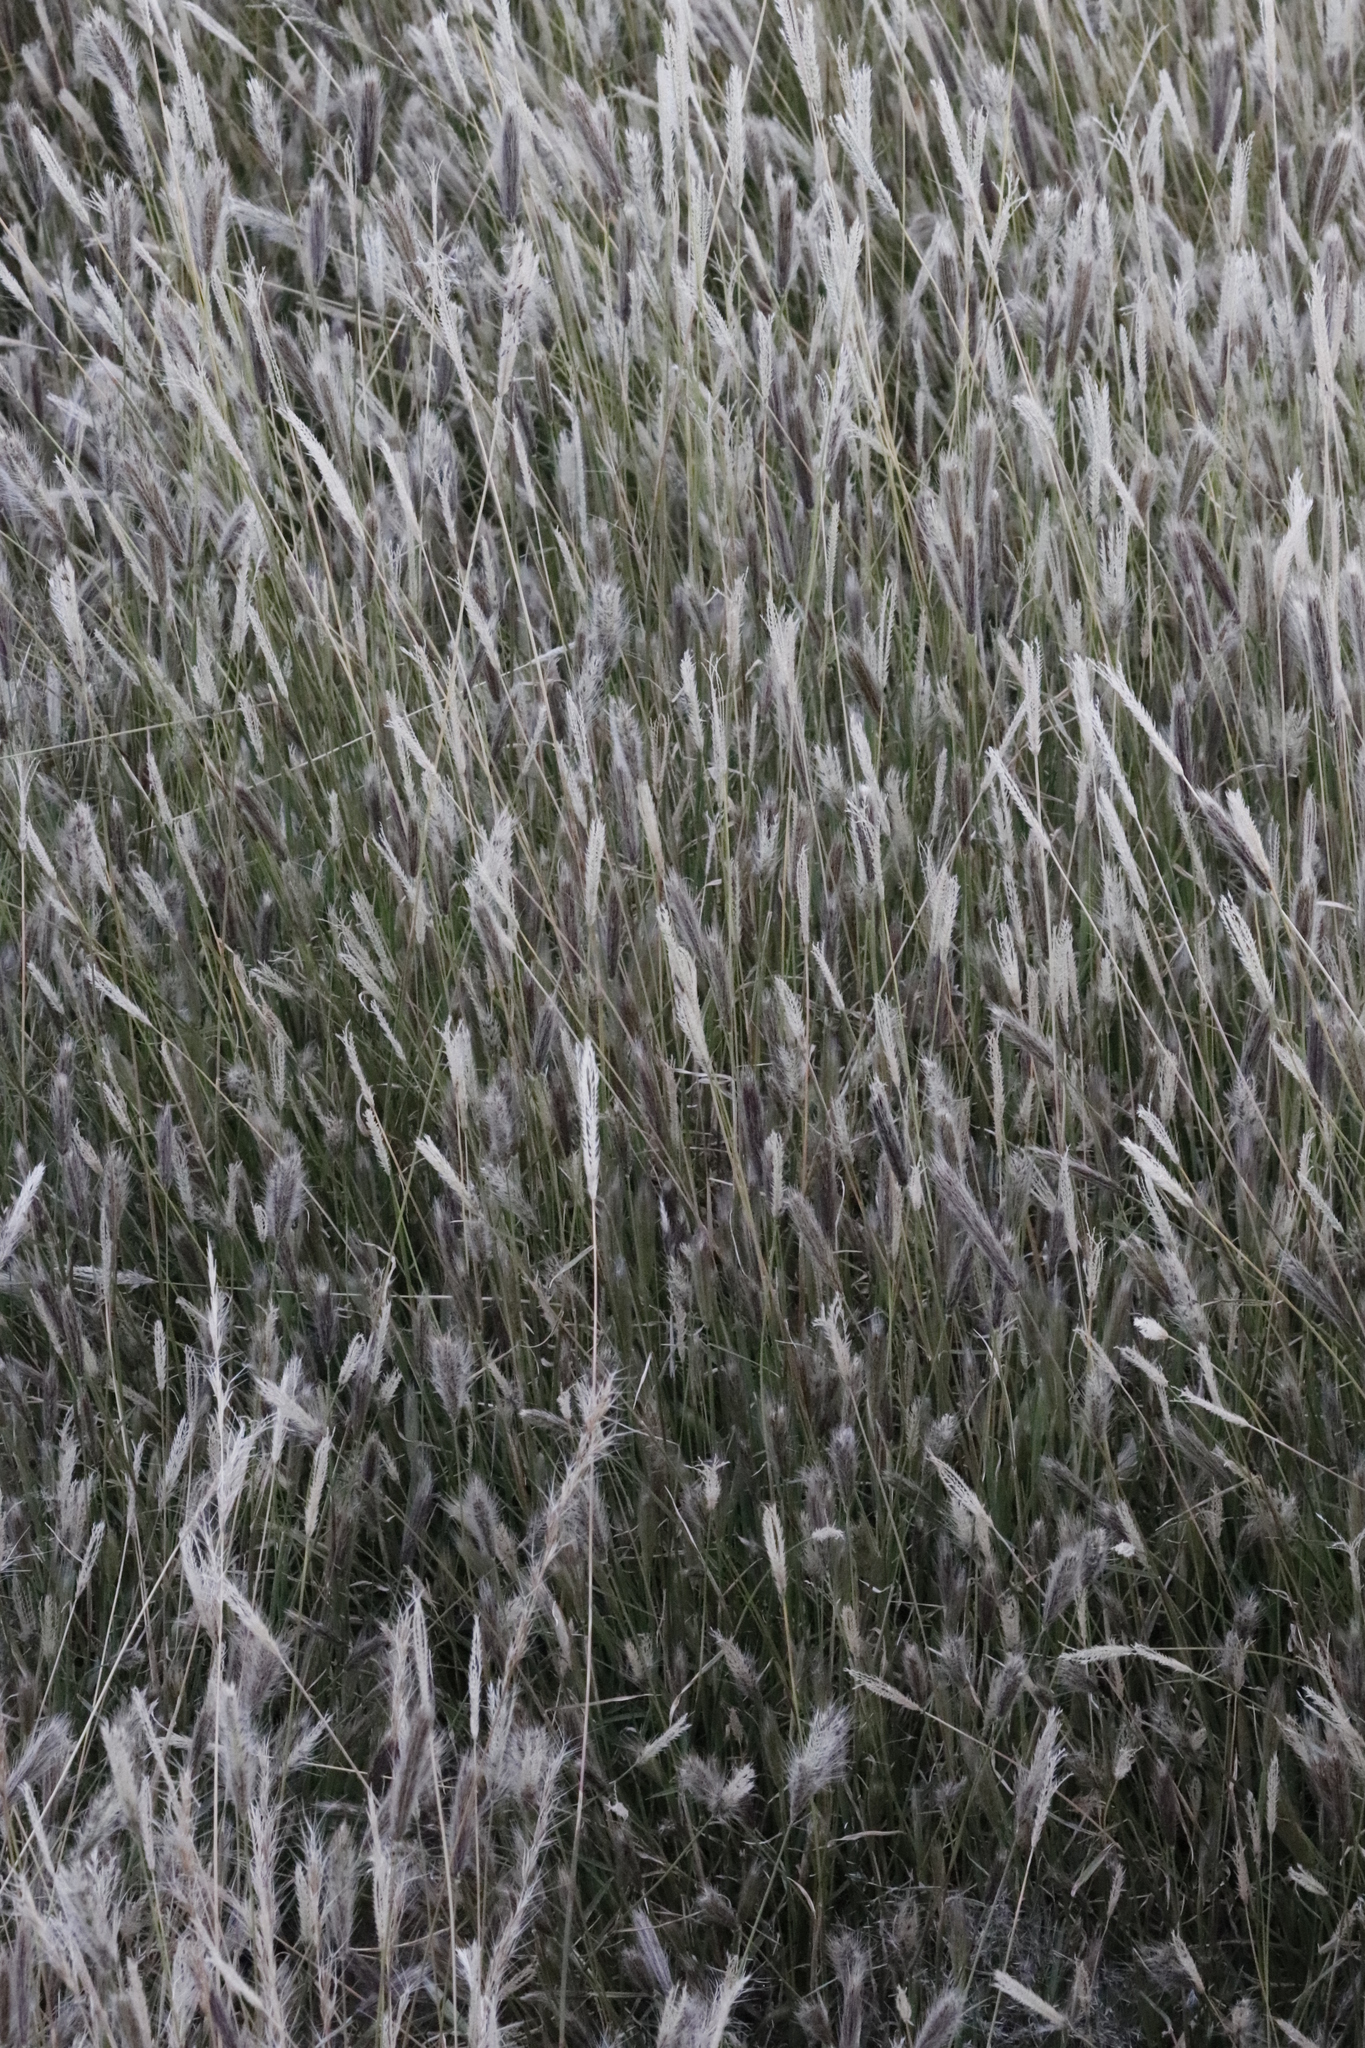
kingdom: Plantae
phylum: Tracheophyta
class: Liliopsida
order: Poales
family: Poaceae
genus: Chloris
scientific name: Chloris virgata
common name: Feathery rhodes-grass
